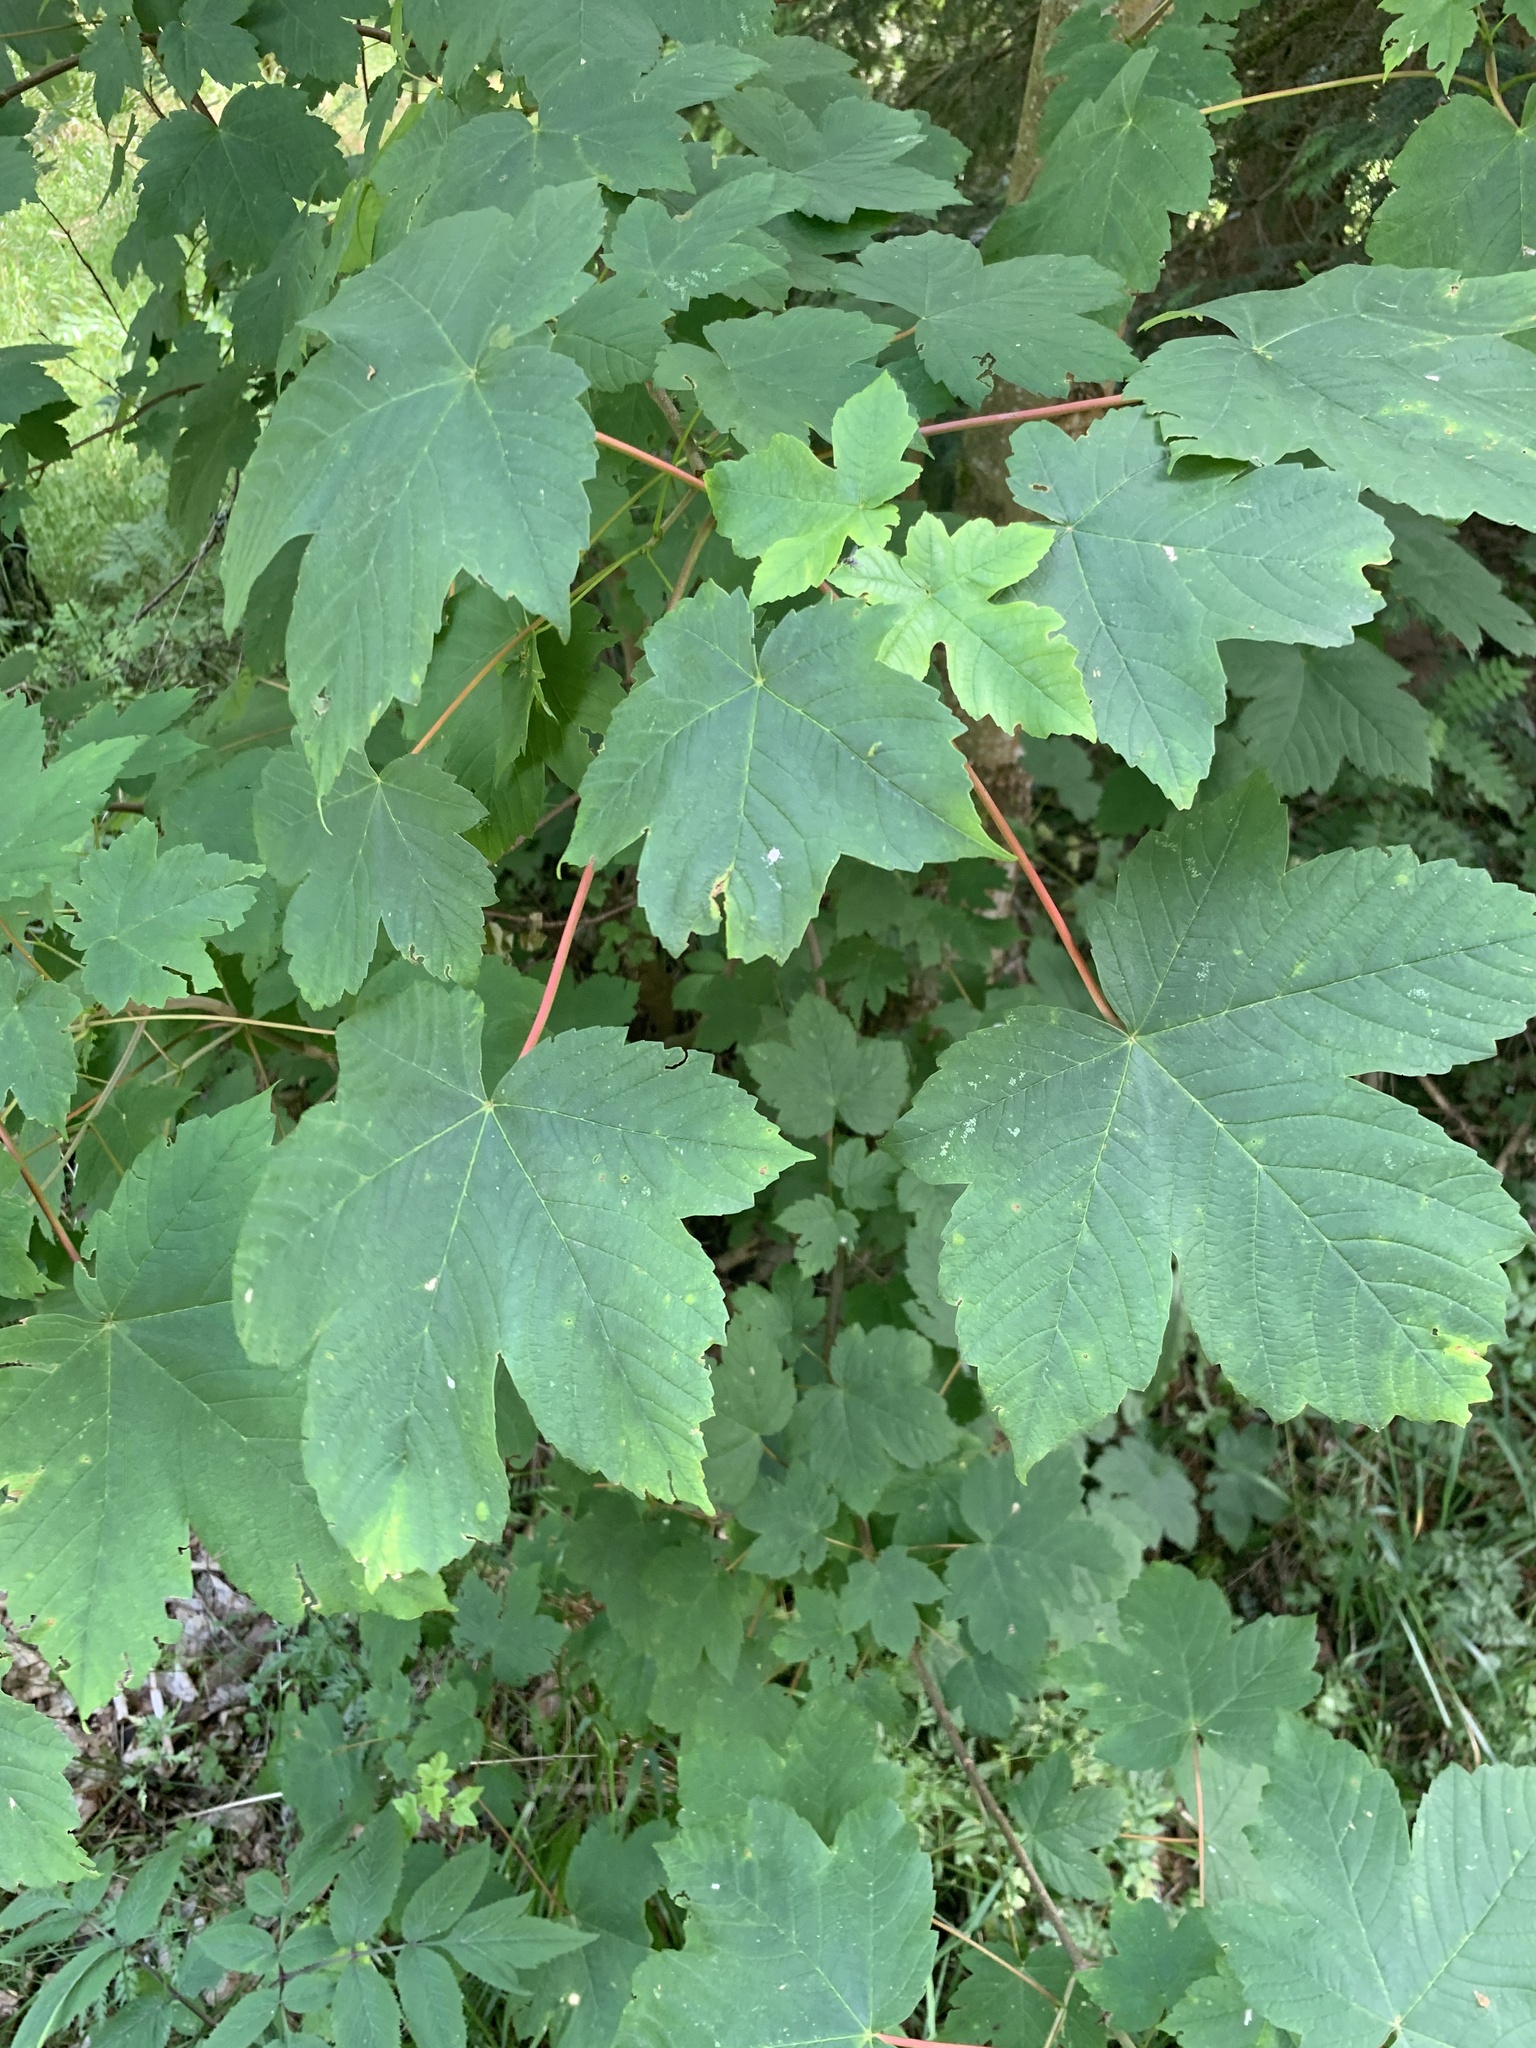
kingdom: Plantae
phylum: Tracheophyta
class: Magnoliopsida
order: Sapindales
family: Sapindaceae
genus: Acer
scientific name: Acer pseudoplatanus
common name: Sycamore
